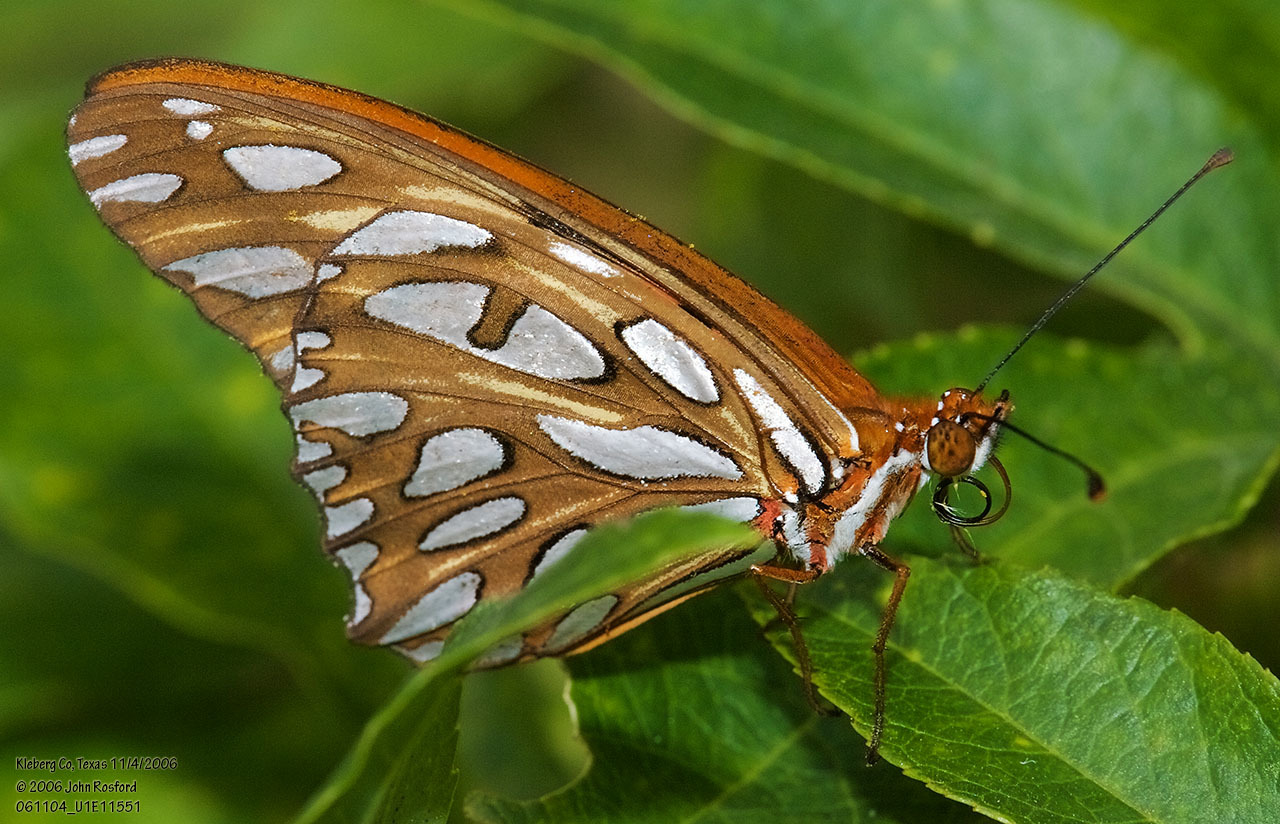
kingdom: Animalia
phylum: Arthropoda
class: Insecta
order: Lepidoptera
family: Nymphalidae
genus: Dione
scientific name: Dione vanillae
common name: Gulf fritillary
